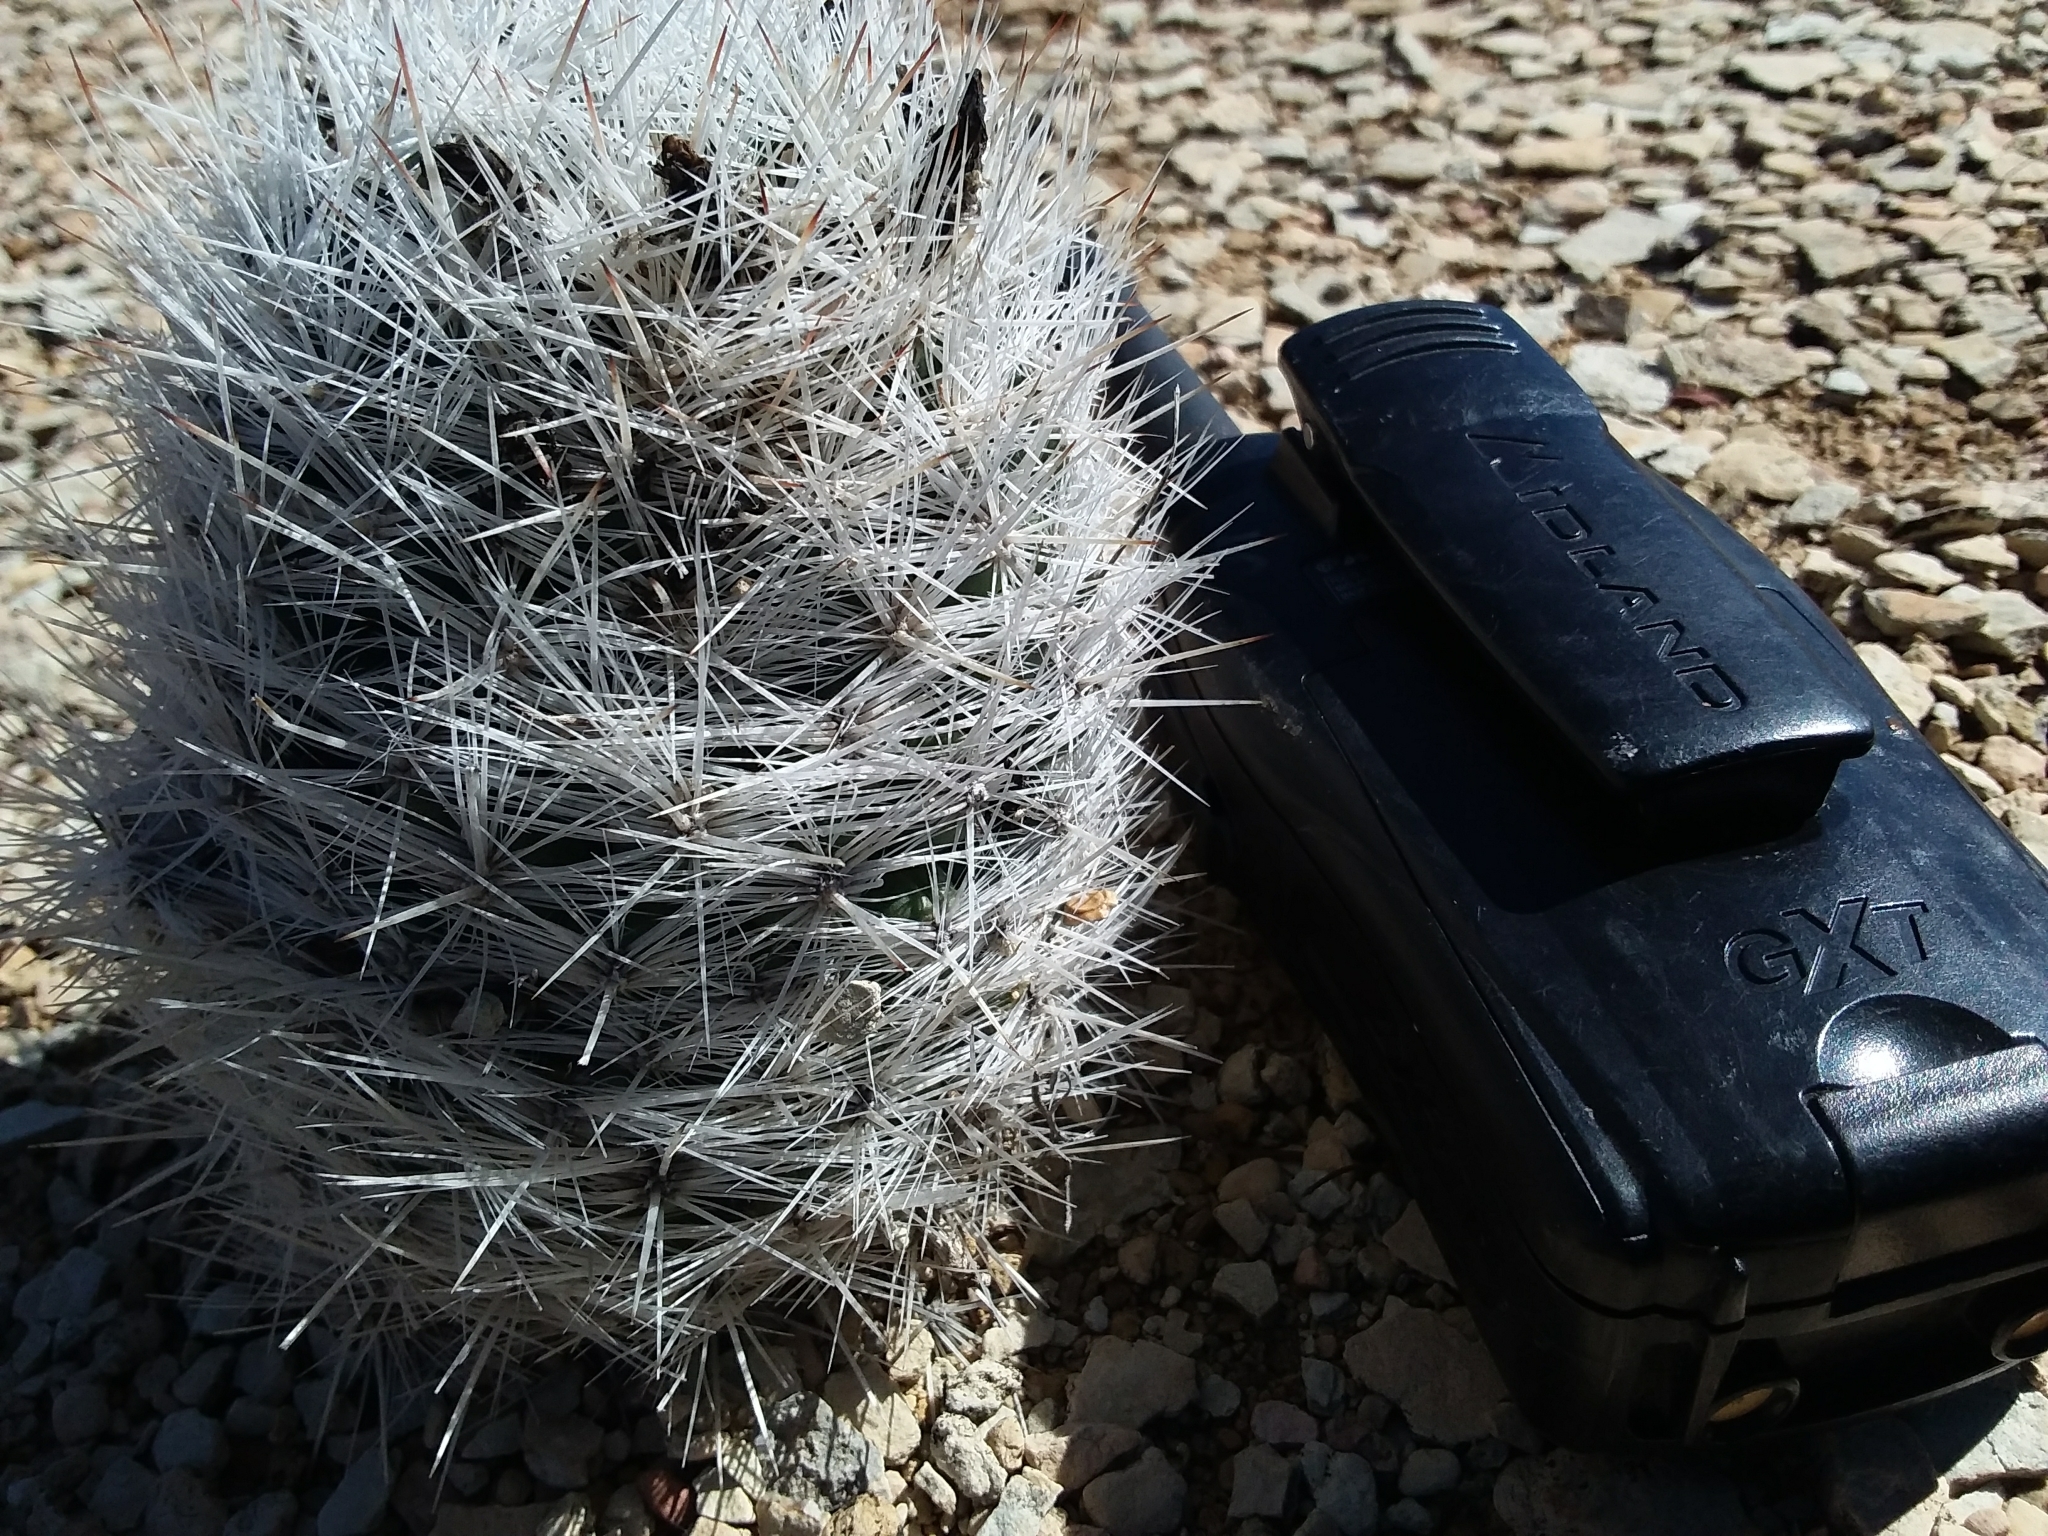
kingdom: Plantae
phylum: Tracheophyta
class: Magnoliopsida
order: Caryophyllales
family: Cactaceae
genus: Pelecyphora
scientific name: Pelecyphora sneedii
